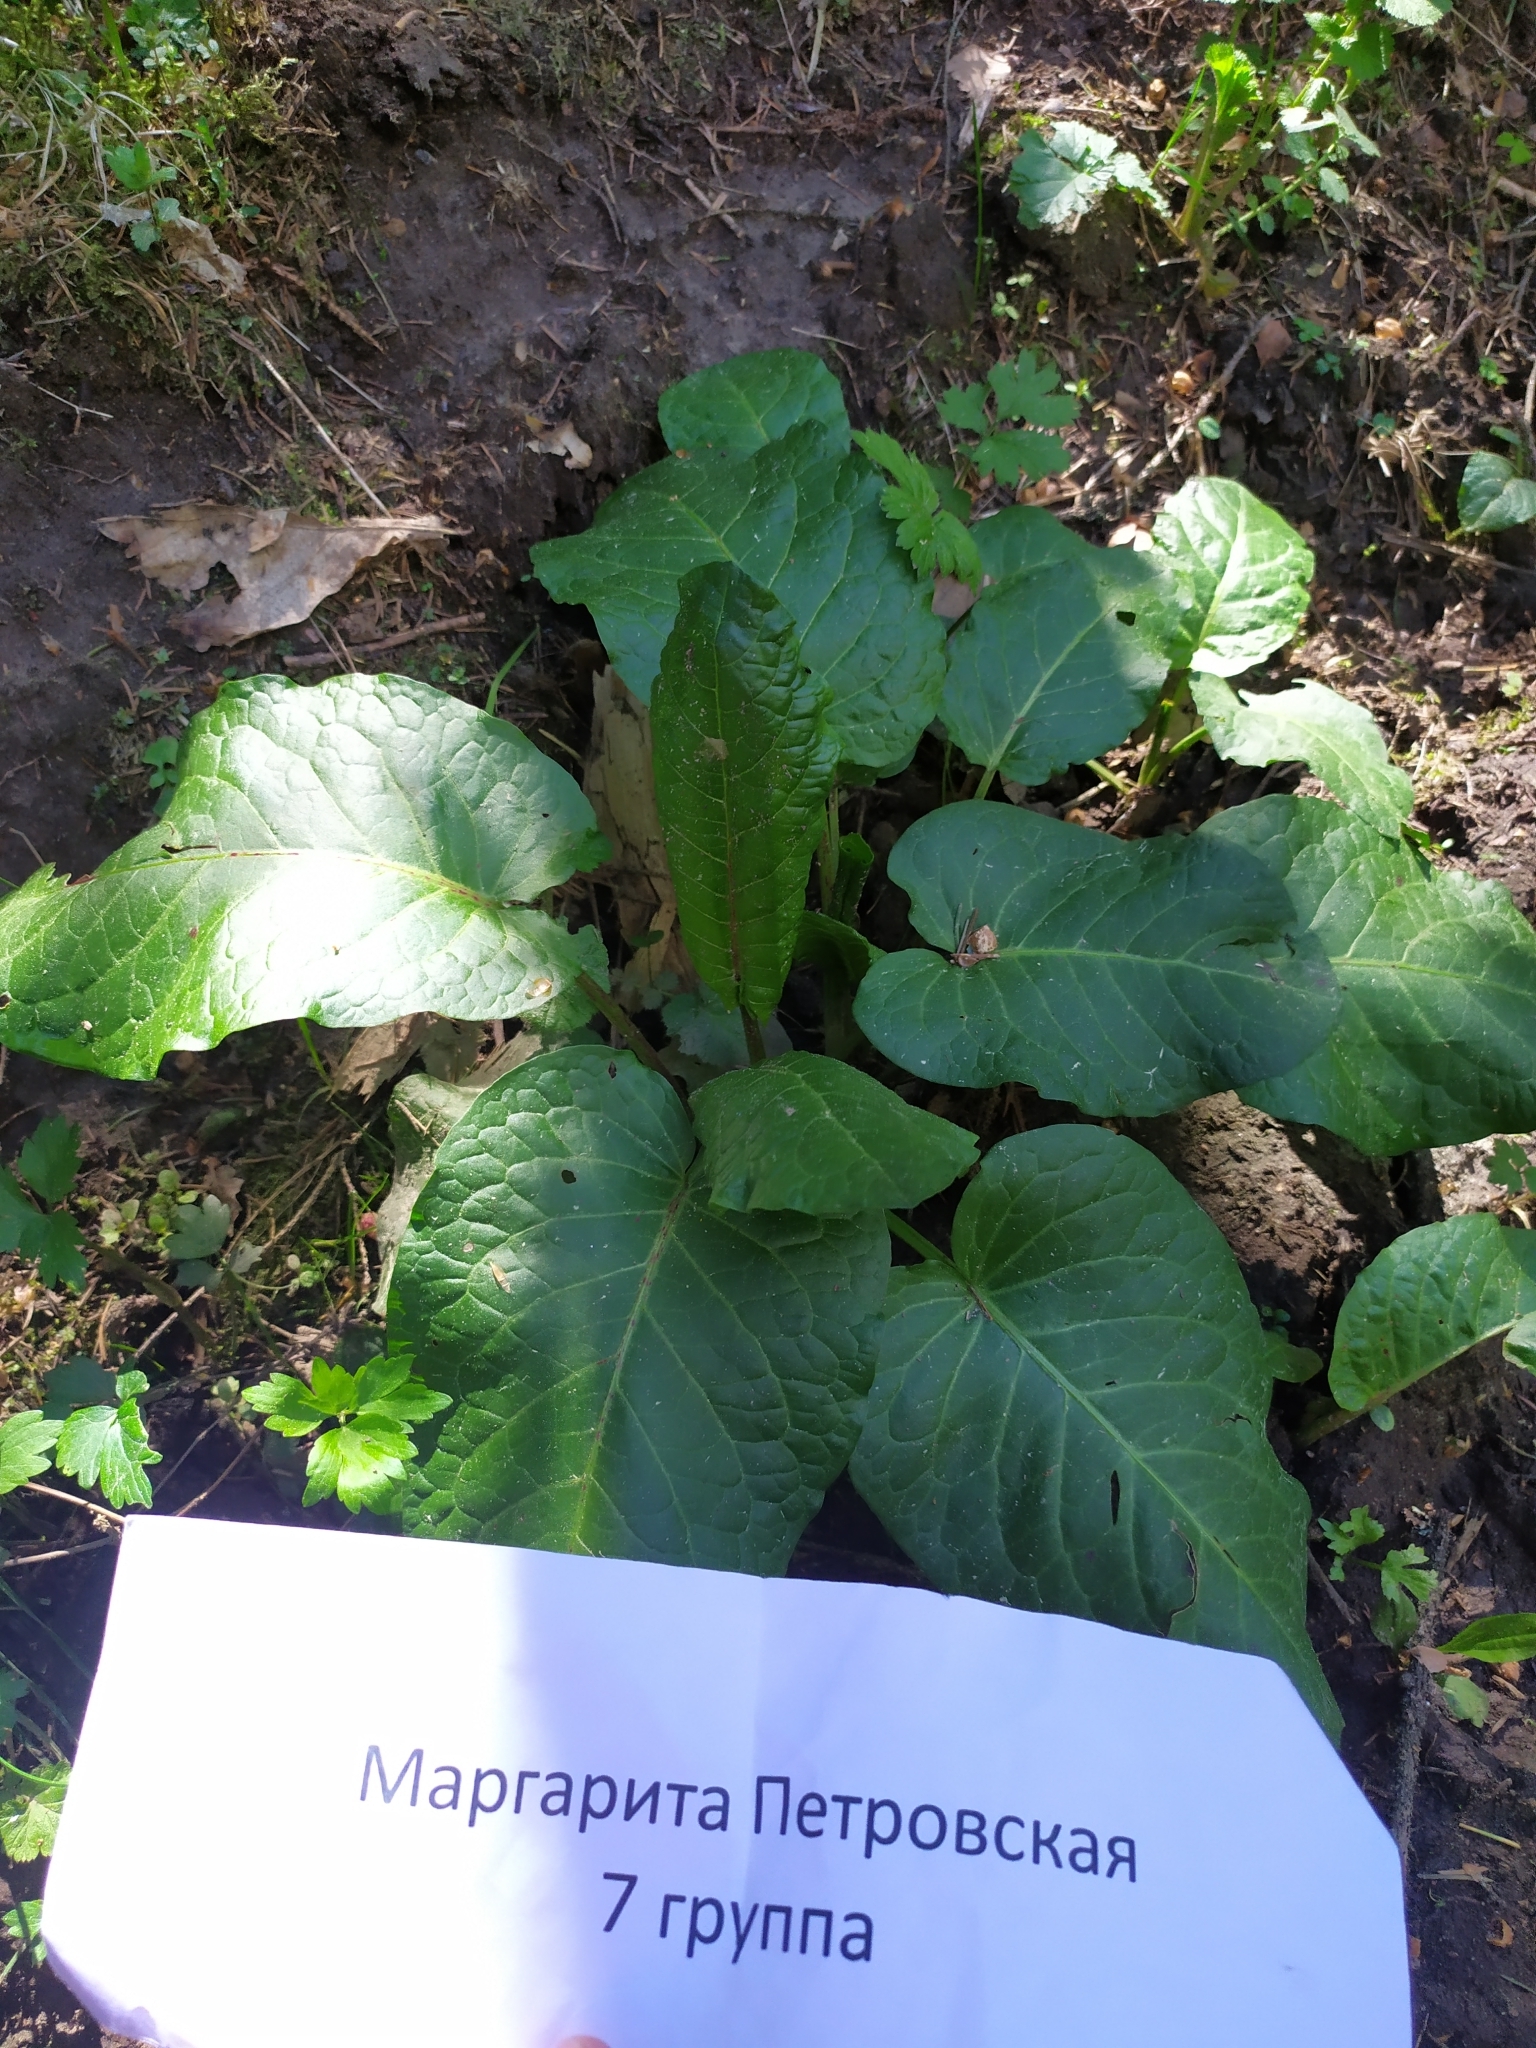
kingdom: Plantae
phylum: Tracheophyta
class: Magnoliopsida
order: Caryophyllales
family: Polygonaceae
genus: Rumex
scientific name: Rumex obtusifolius
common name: Bitter dock
